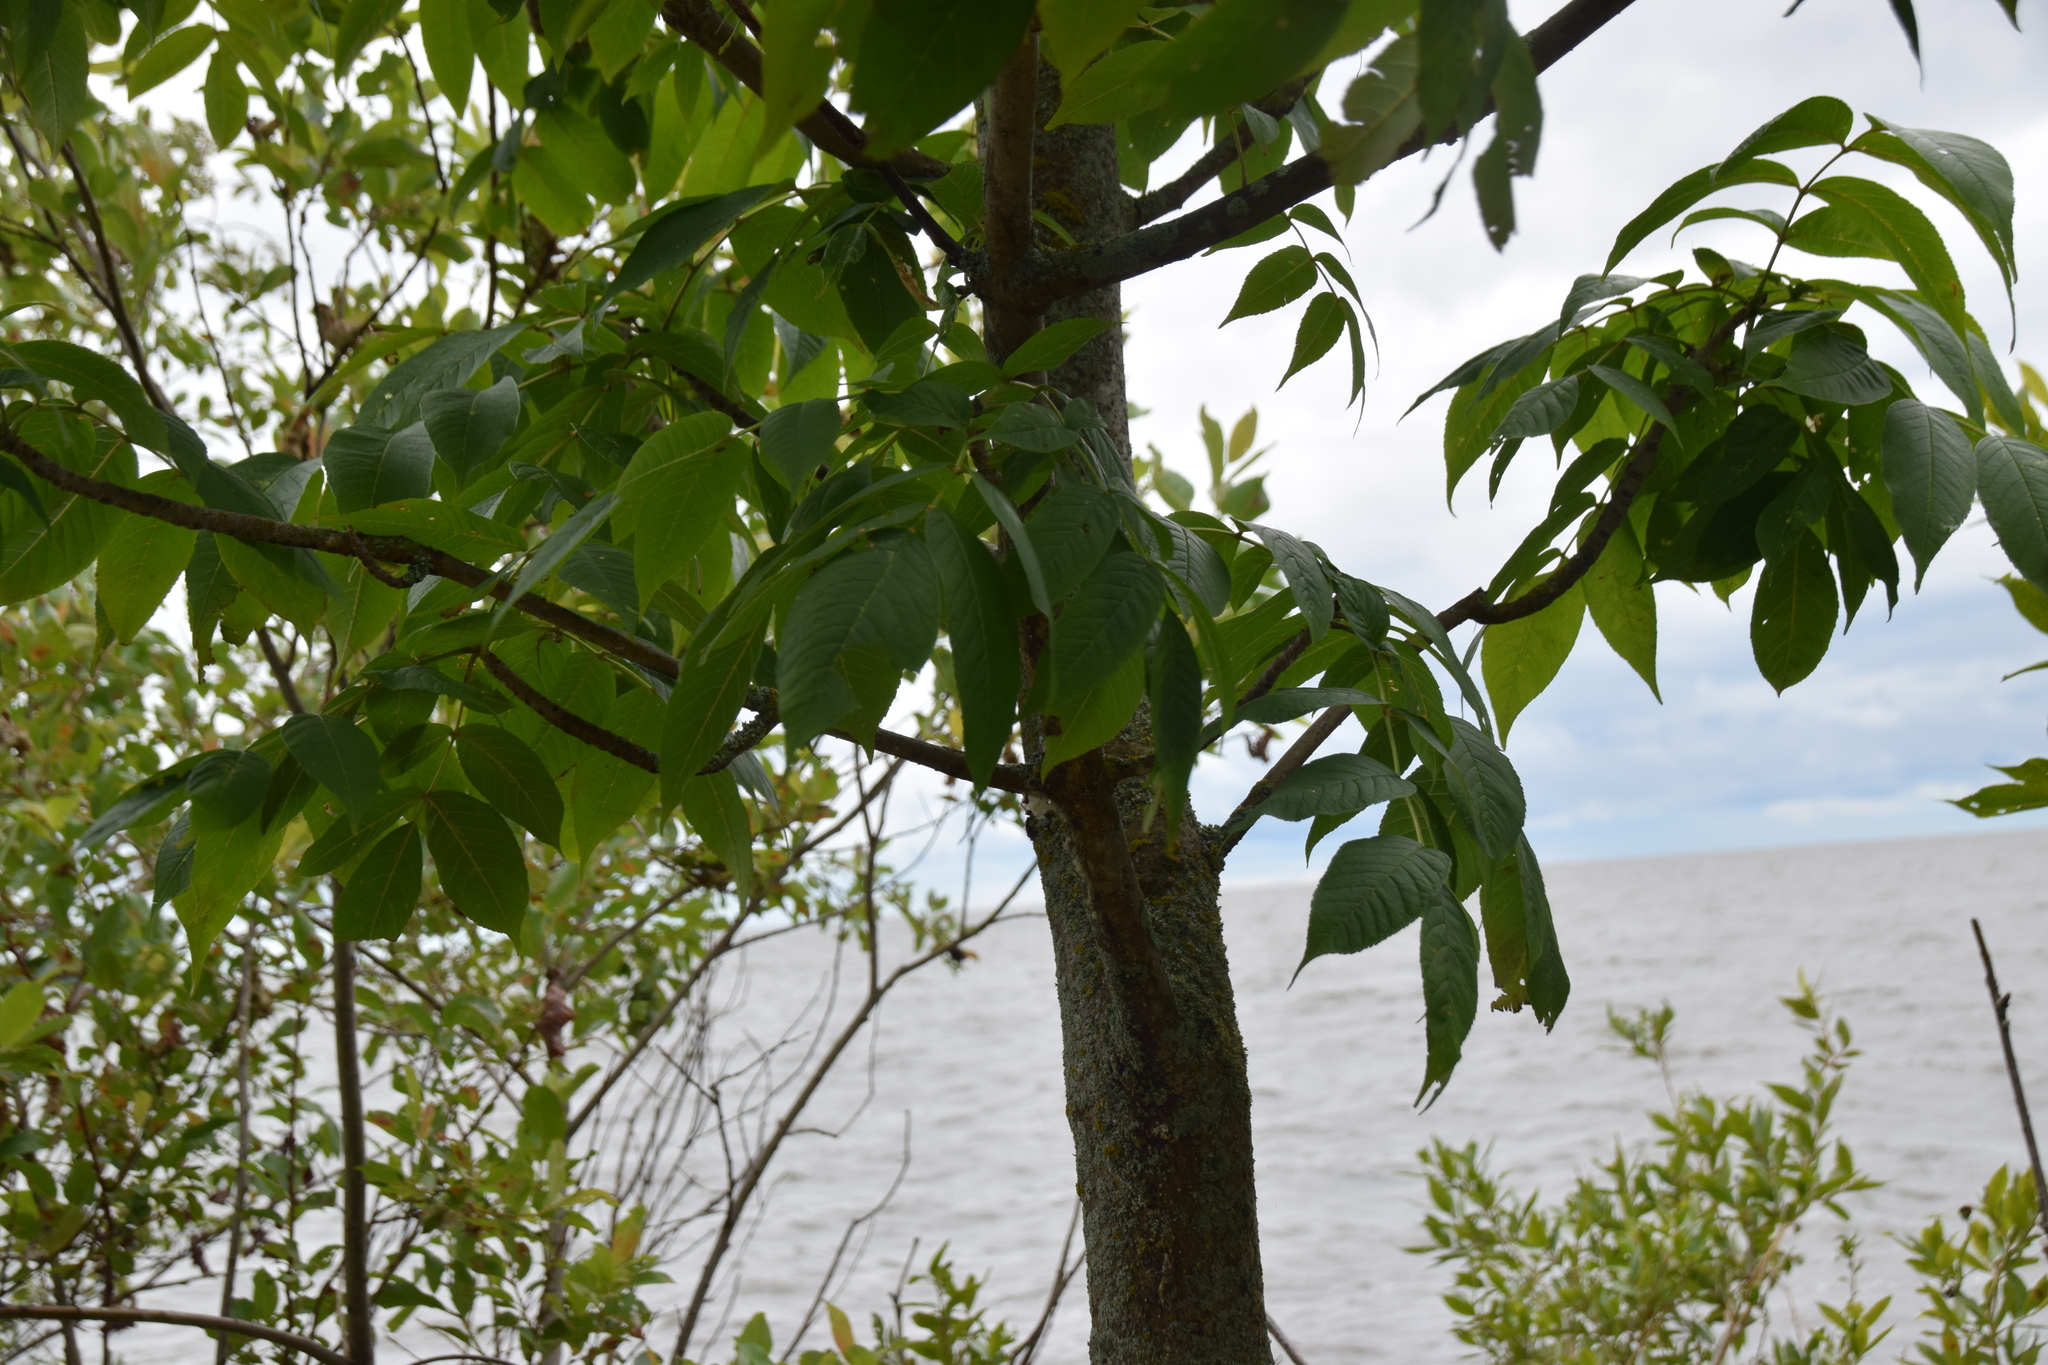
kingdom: Plantae
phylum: Tracheophyta
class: Magnoliopsida
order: Lamiales
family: Oleaceae
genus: Fraxinus
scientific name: Fraxinus nigra
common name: Black ash
